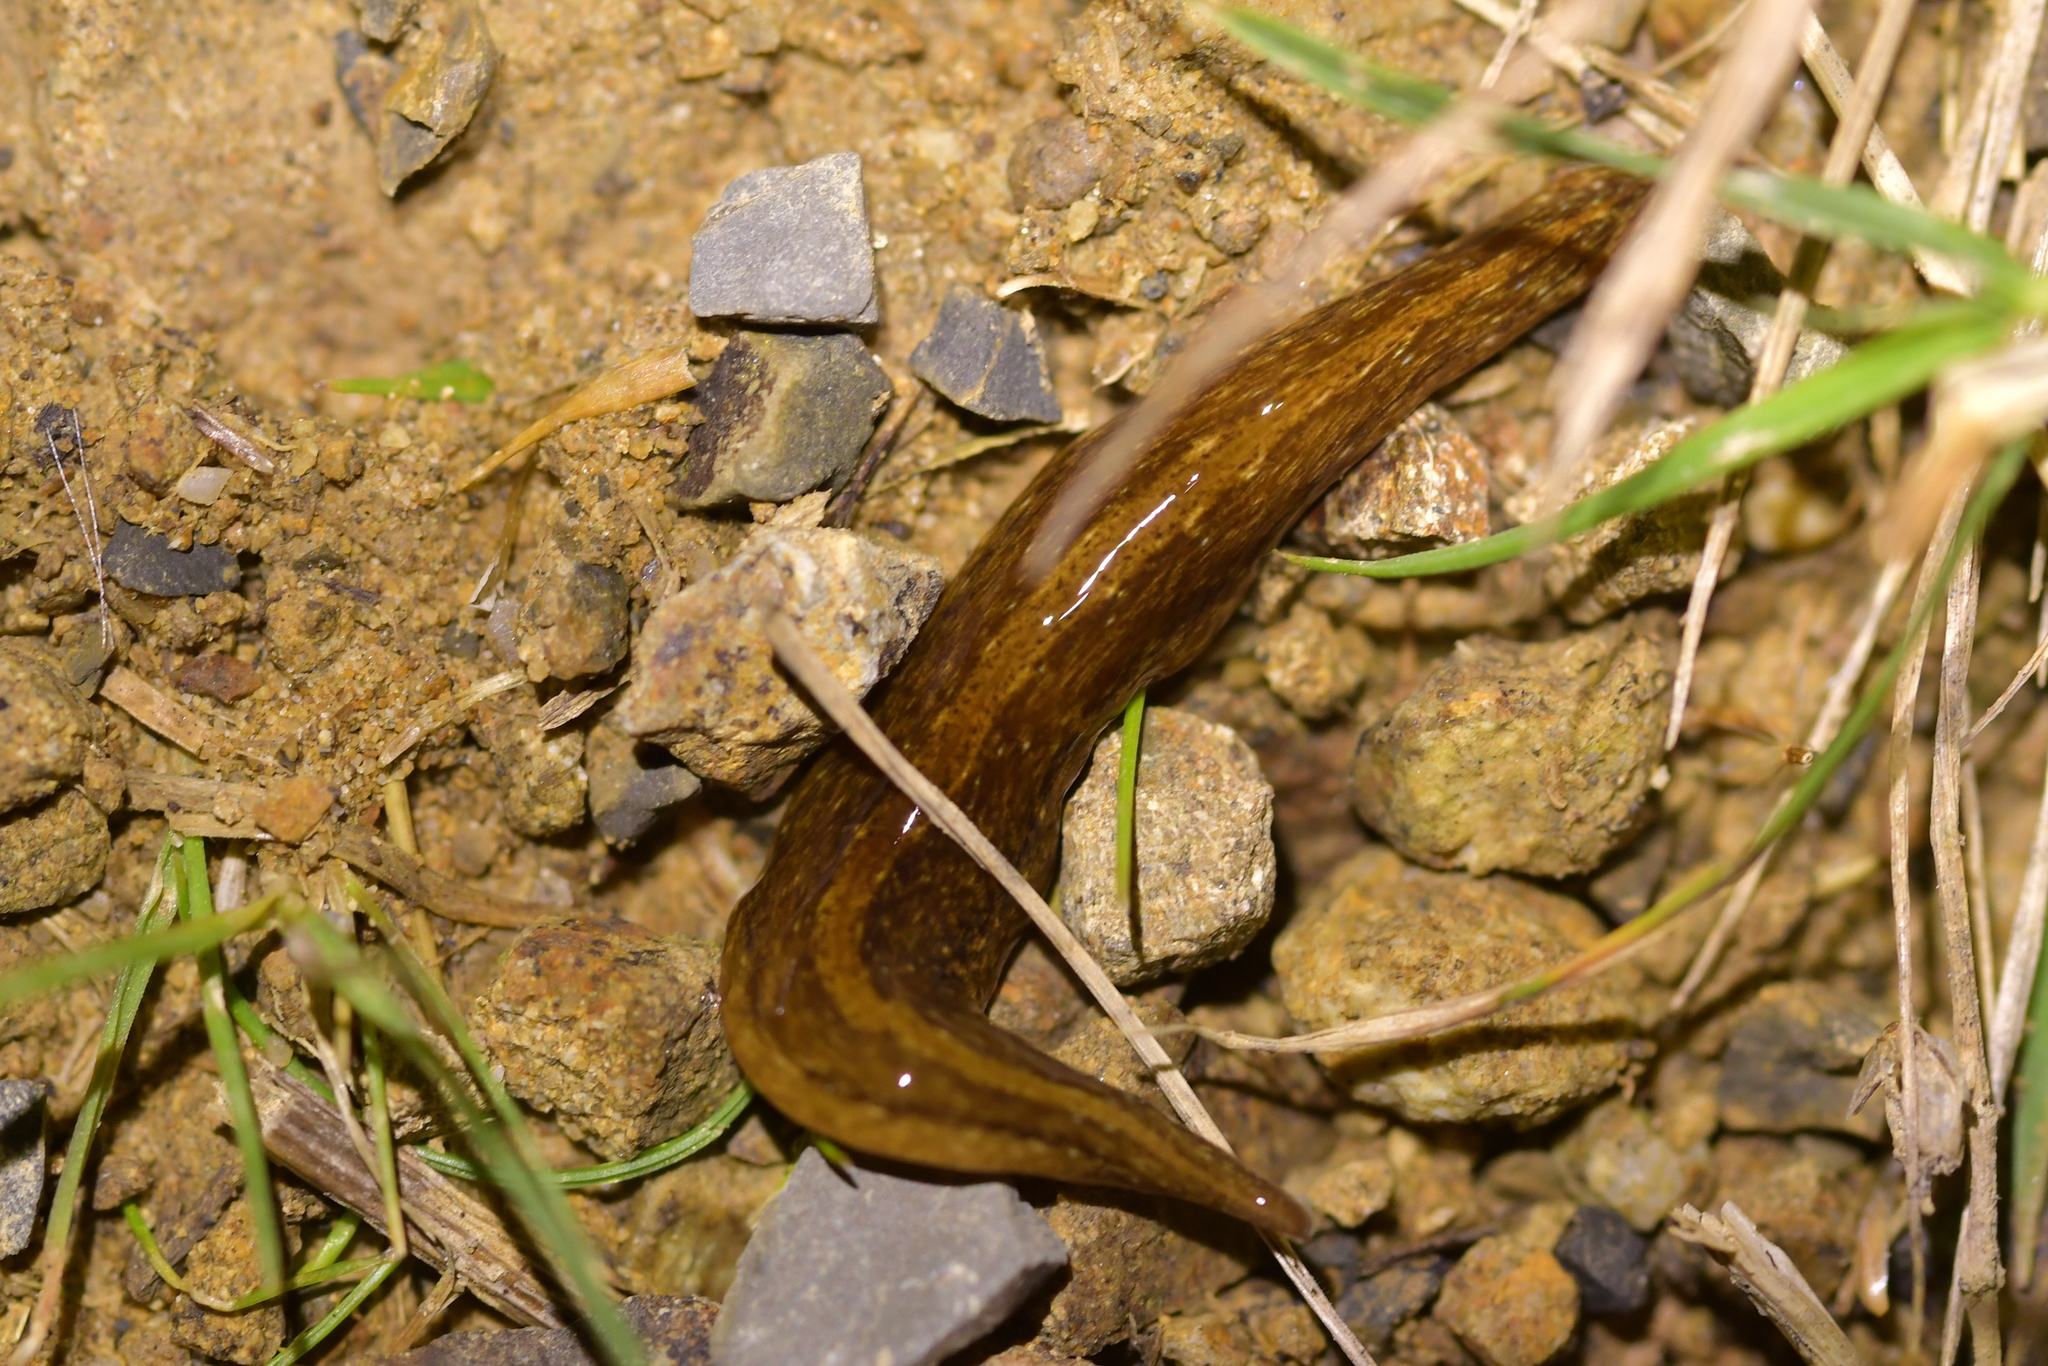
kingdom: Animalia
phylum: Platyhelminthes
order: Tricladida
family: Geoplanidae
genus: Australopacifica
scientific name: Australopacifica laingii
